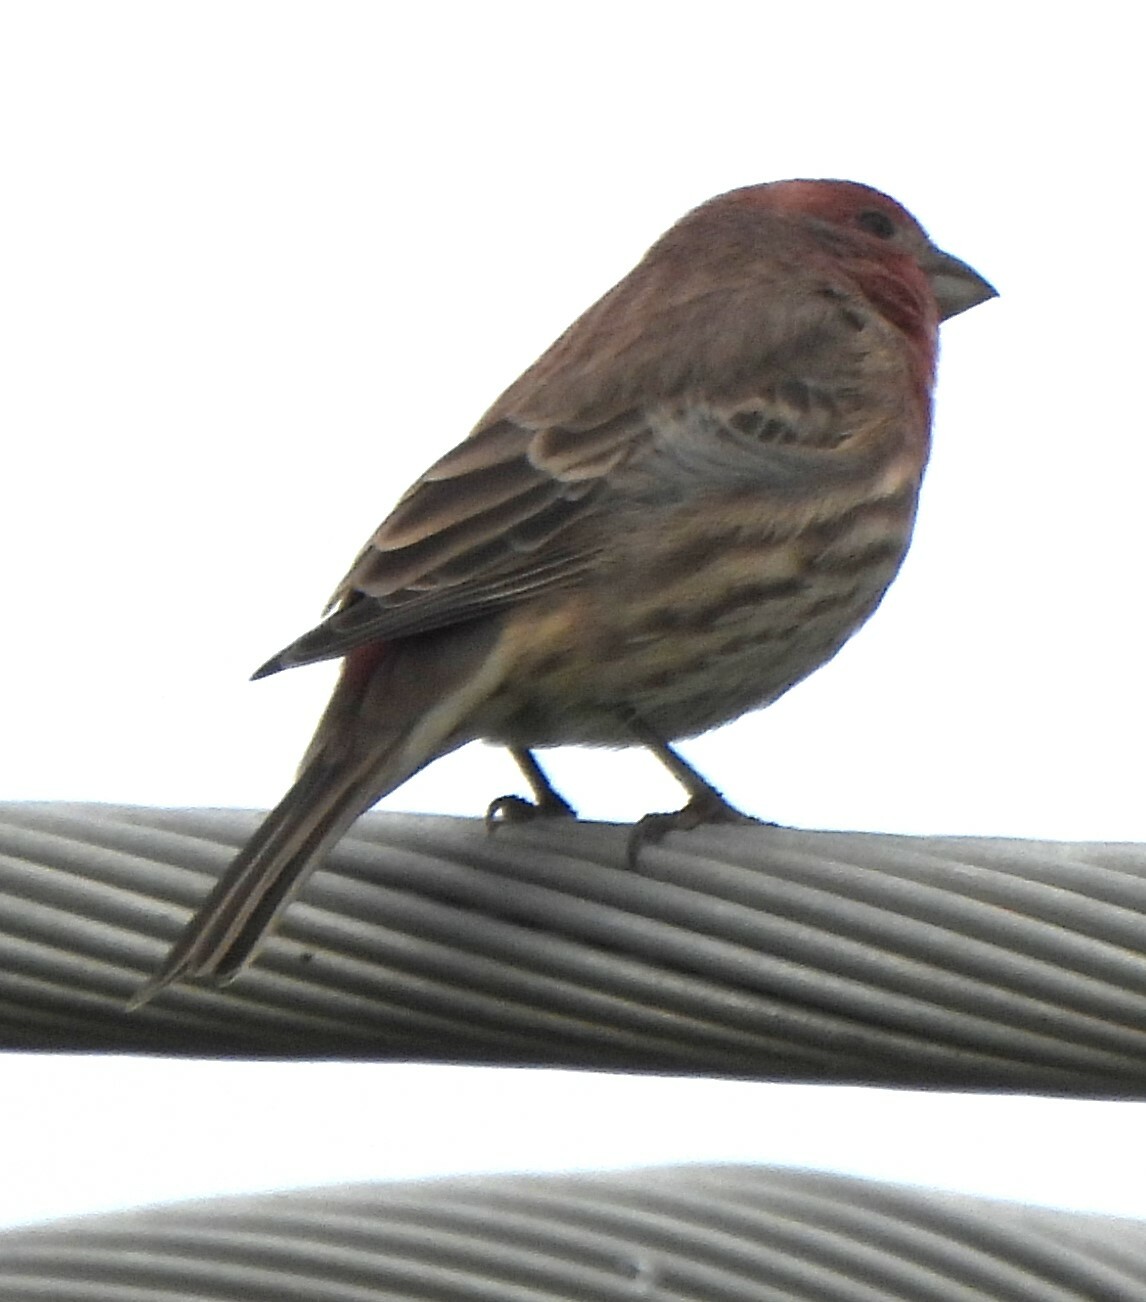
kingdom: Animalia
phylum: Chordata
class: Aves
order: Passeriformes
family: Fringillidae
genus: Haemorhous
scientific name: Haemorhous mexicanus
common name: House finch
